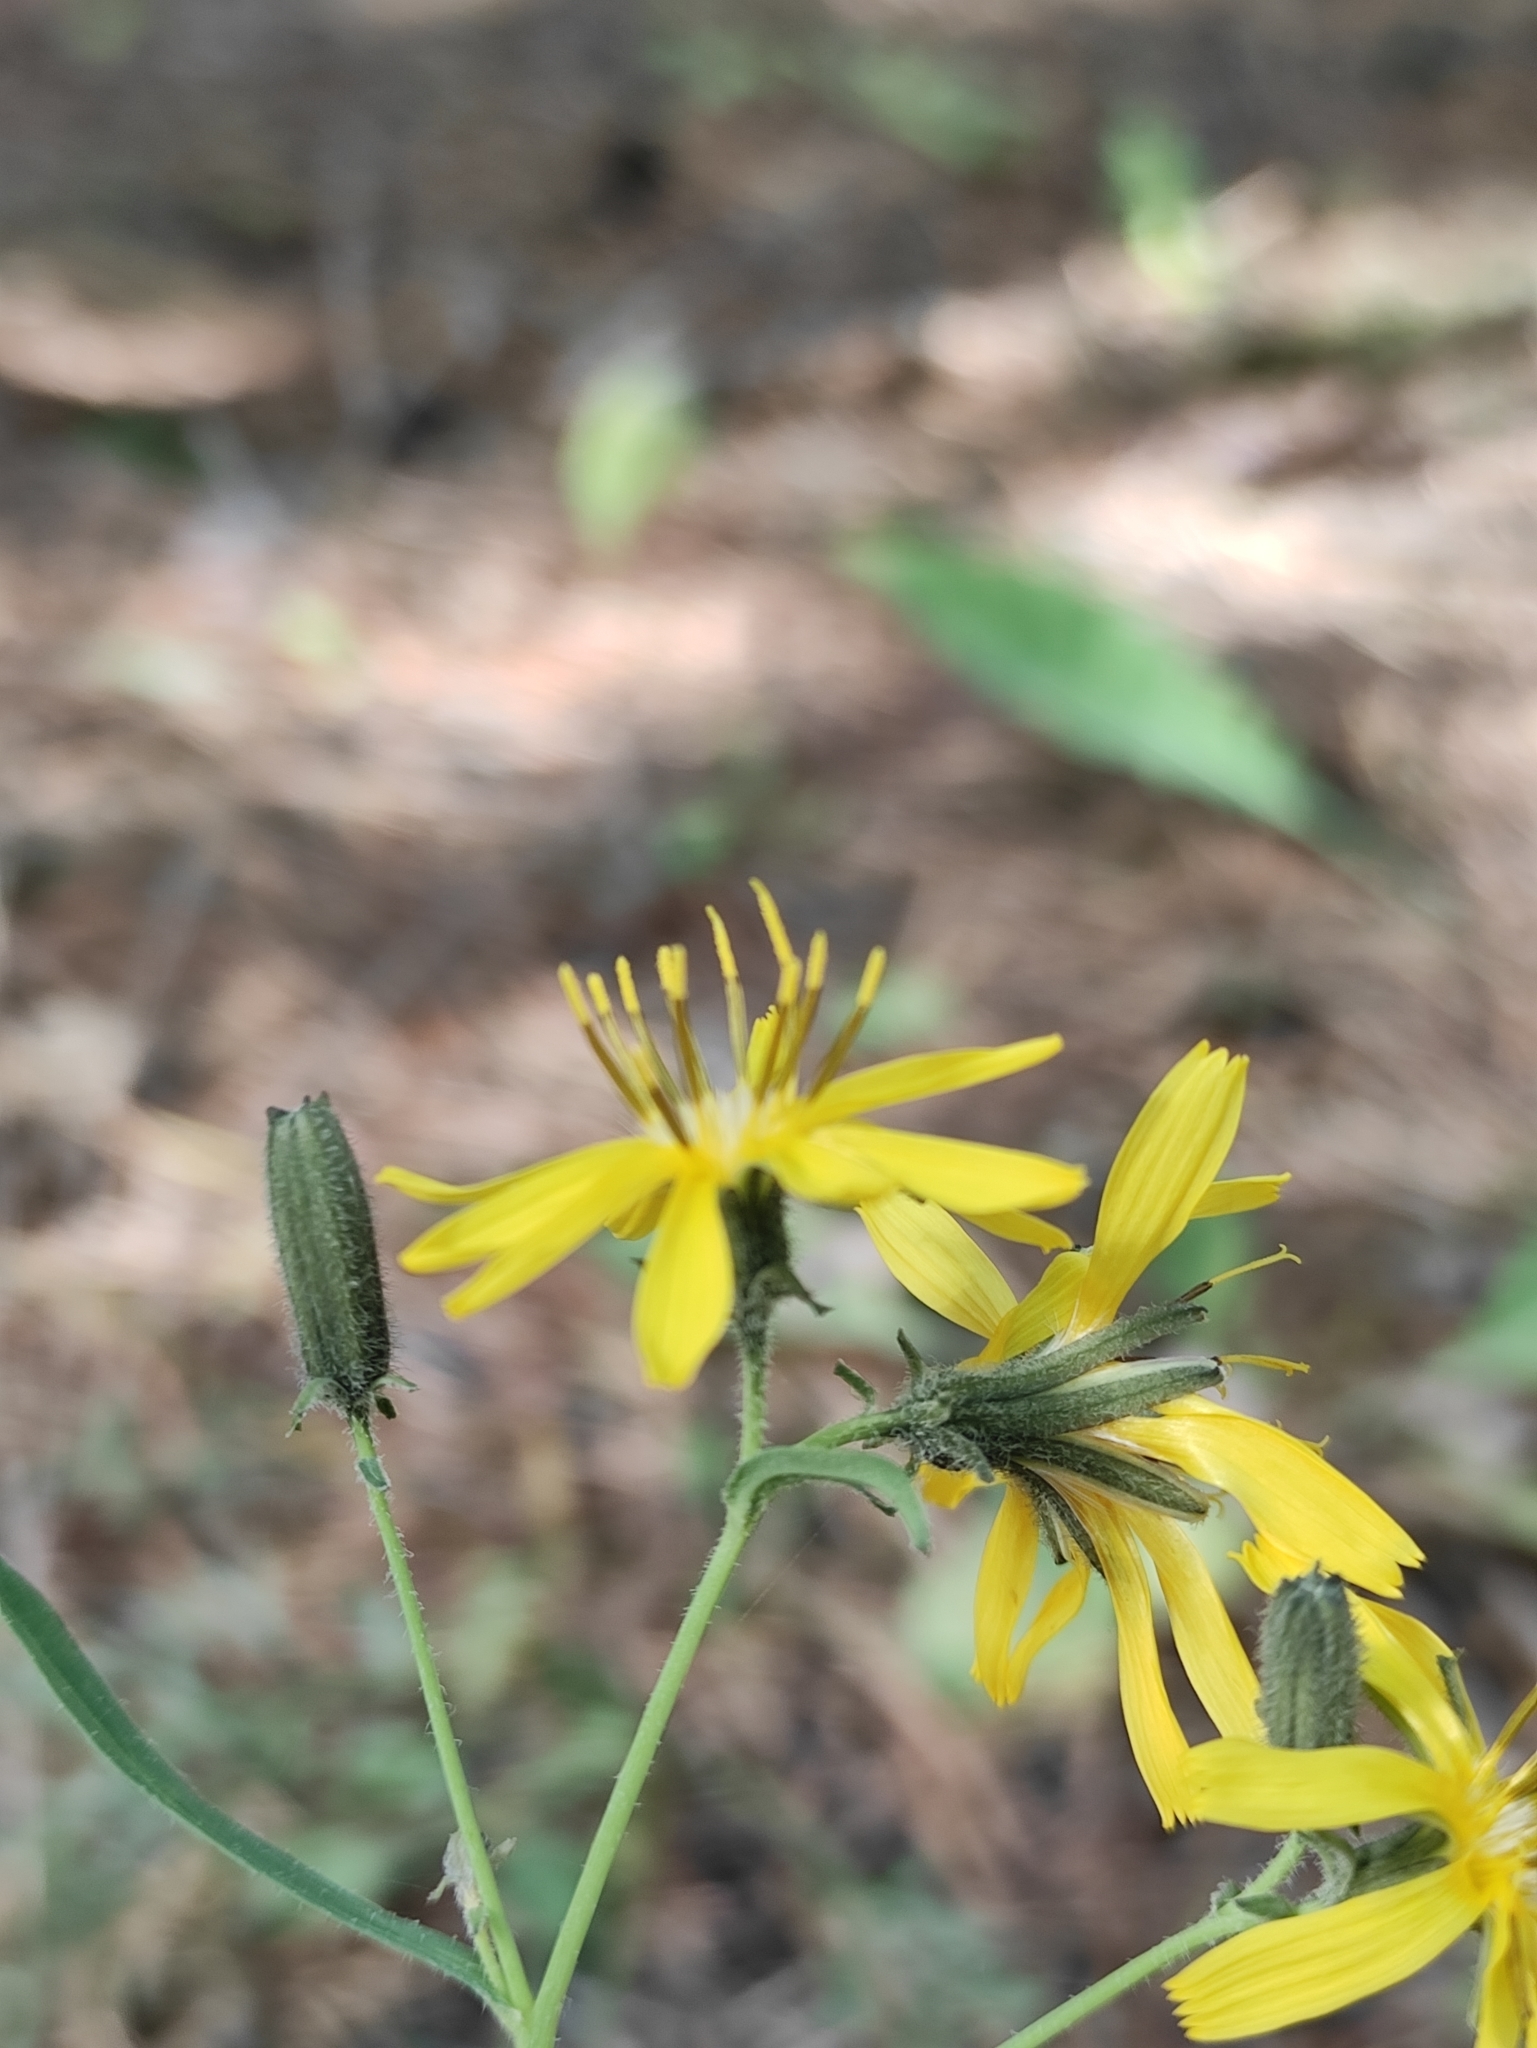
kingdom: Plantae
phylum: Tracheophyta
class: Magnoliopsida
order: Asterales
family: Asteraceae
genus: Ixeris
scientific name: Ixeris chinensis
